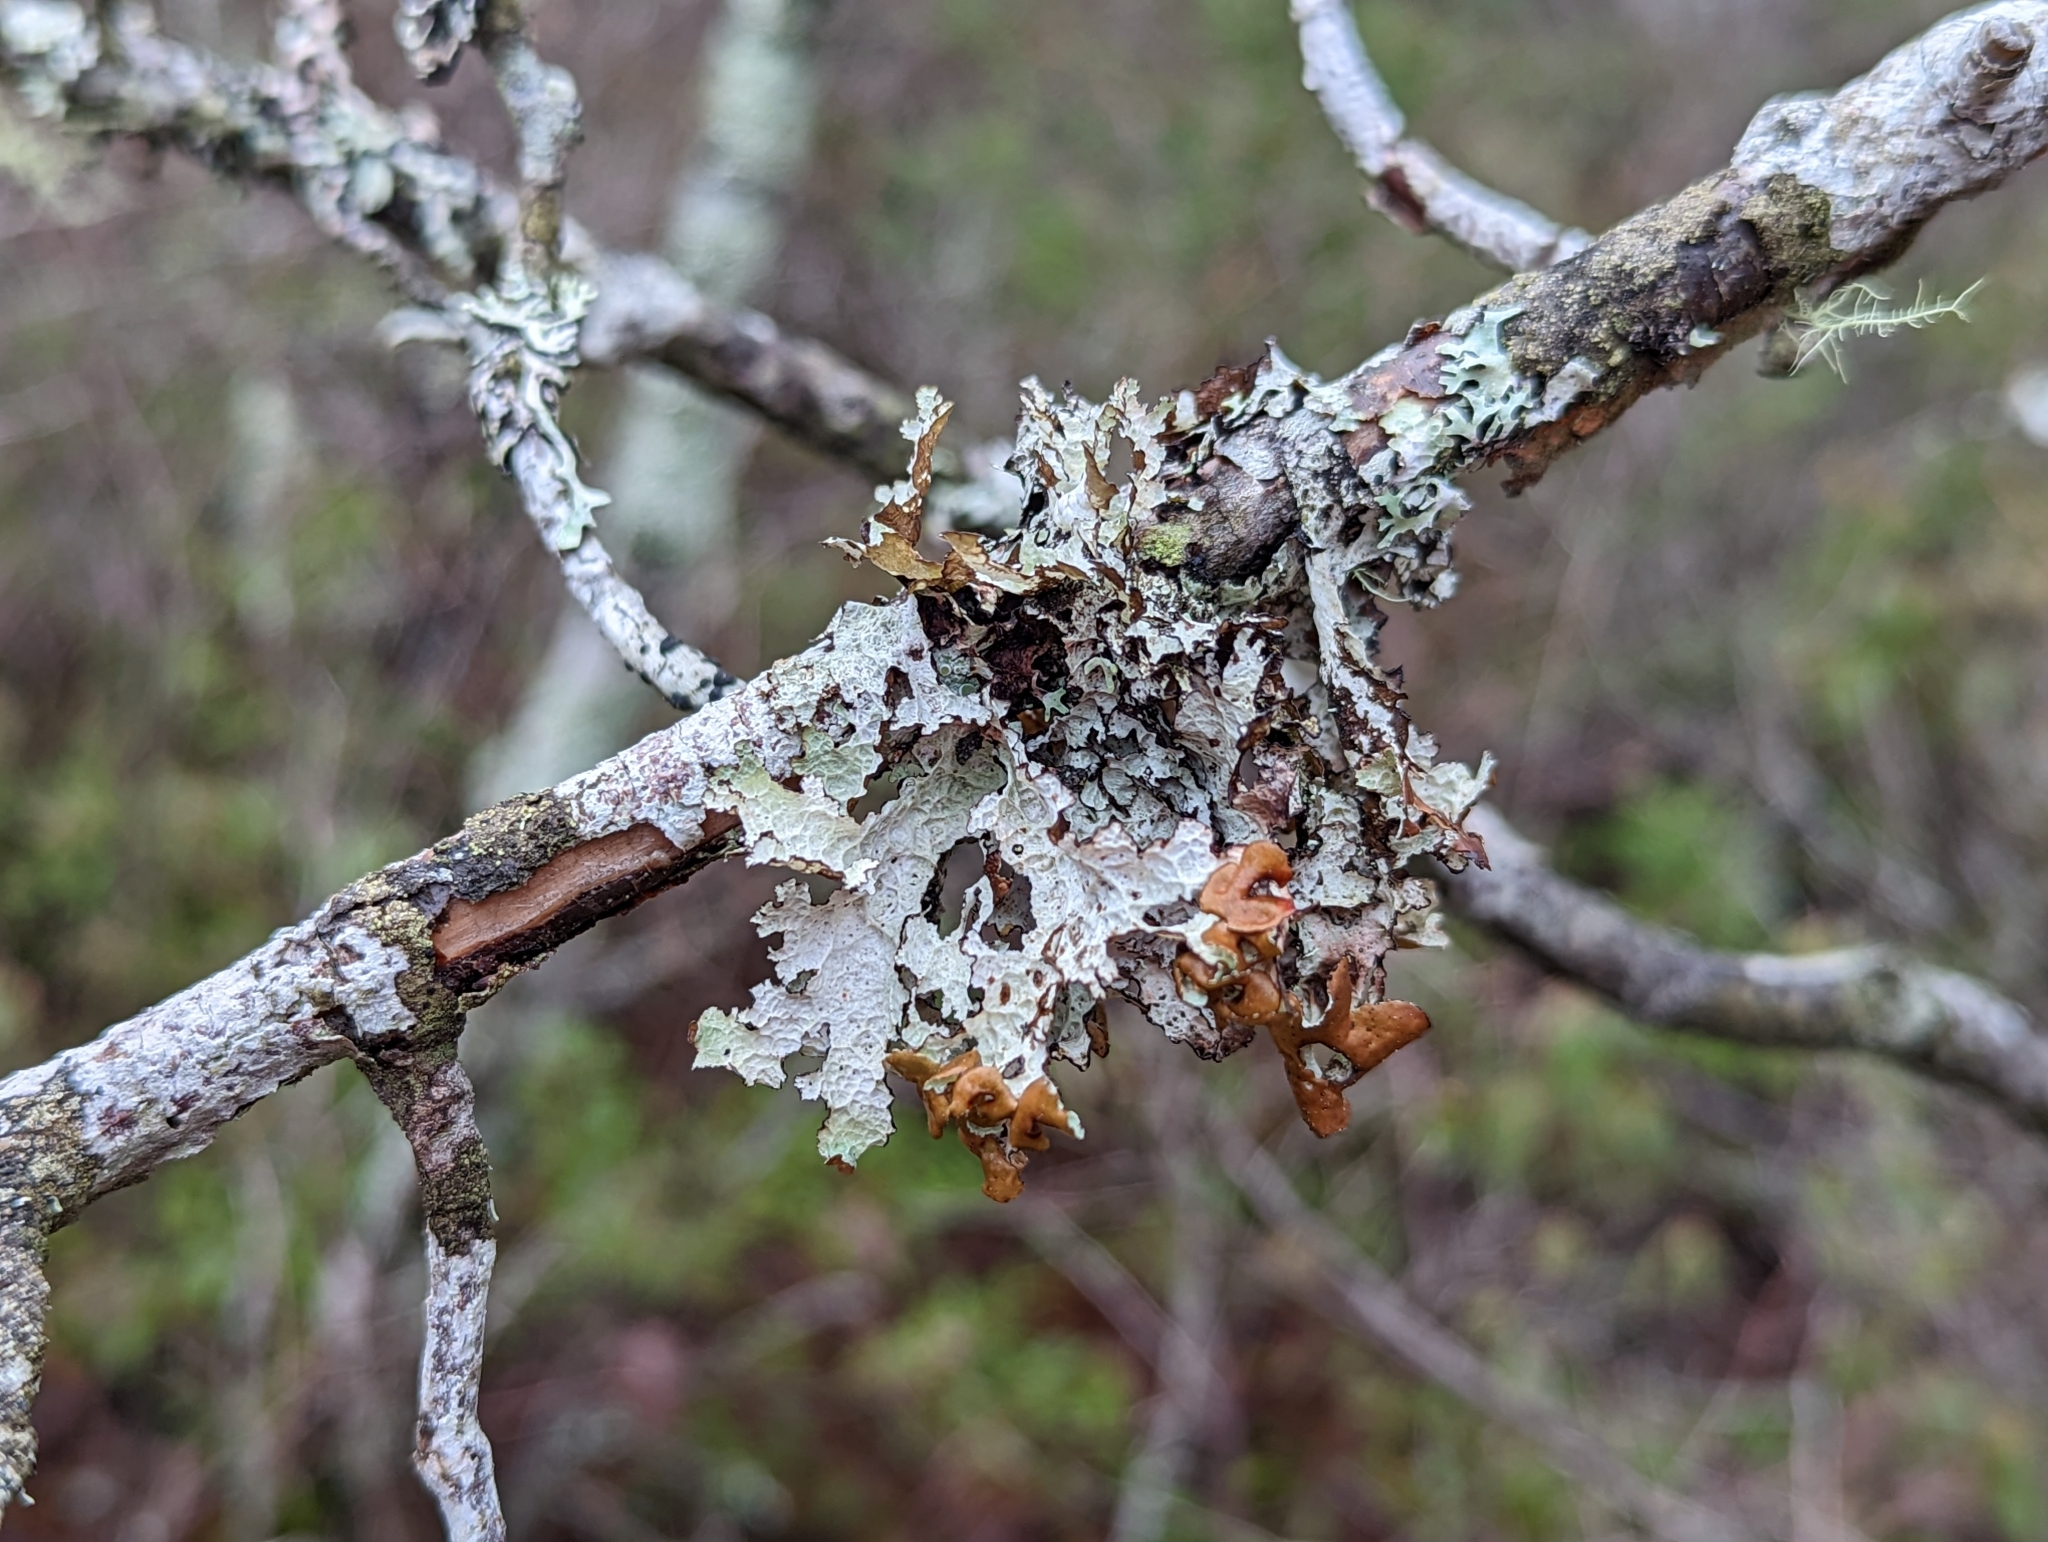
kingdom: Fungi
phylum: Ascomycota
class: Lecanoromycetes
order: Lecanorales
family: Parmeliaceae
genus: Platismatia
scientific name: Platismatia tuckermanii
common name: Crumpled rag lichen
